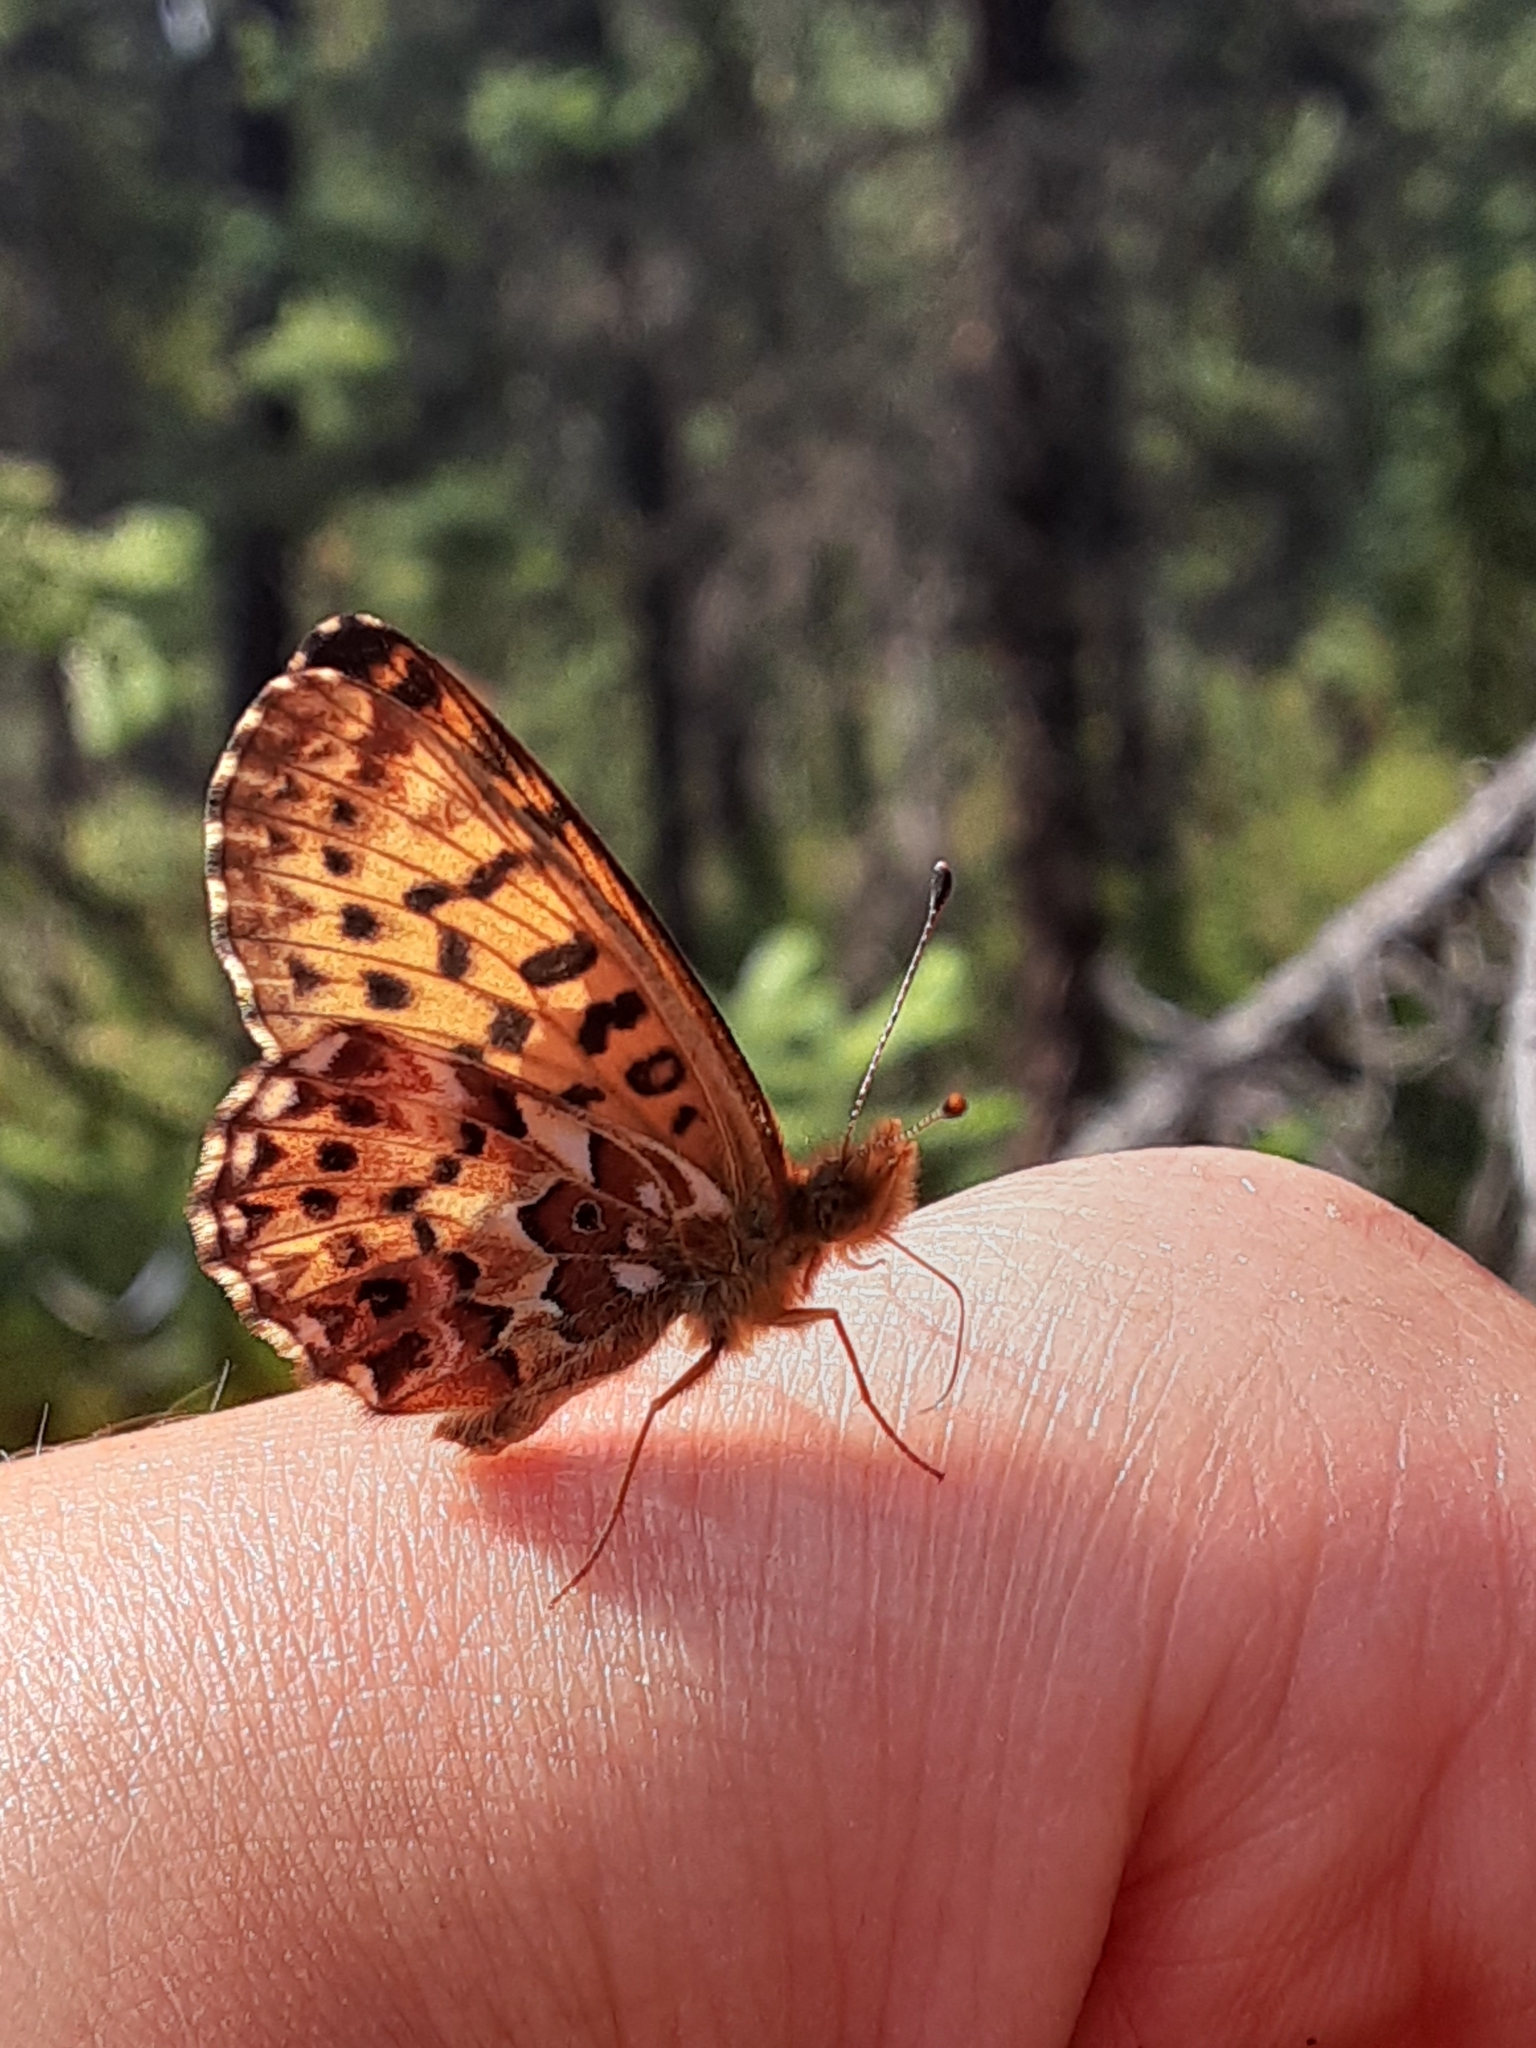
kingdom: Animalia
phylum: Arthropoda
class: Insecta
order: Lepidoptera
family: Nymphalidae
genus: Boloria
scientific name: Boloria chariclea
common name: Arctic fritillary
